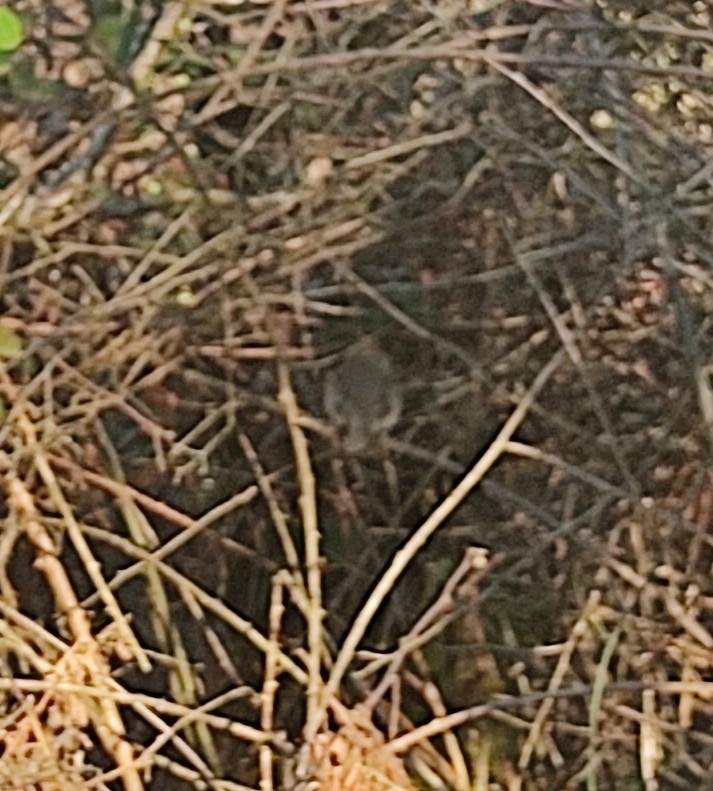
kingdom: Animalia
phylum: Chordata
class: Aves
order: Passeriformes
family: Sylviidae
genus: Sylvia
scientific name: Sylvia atricapilla
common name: Eurasian blackcap
